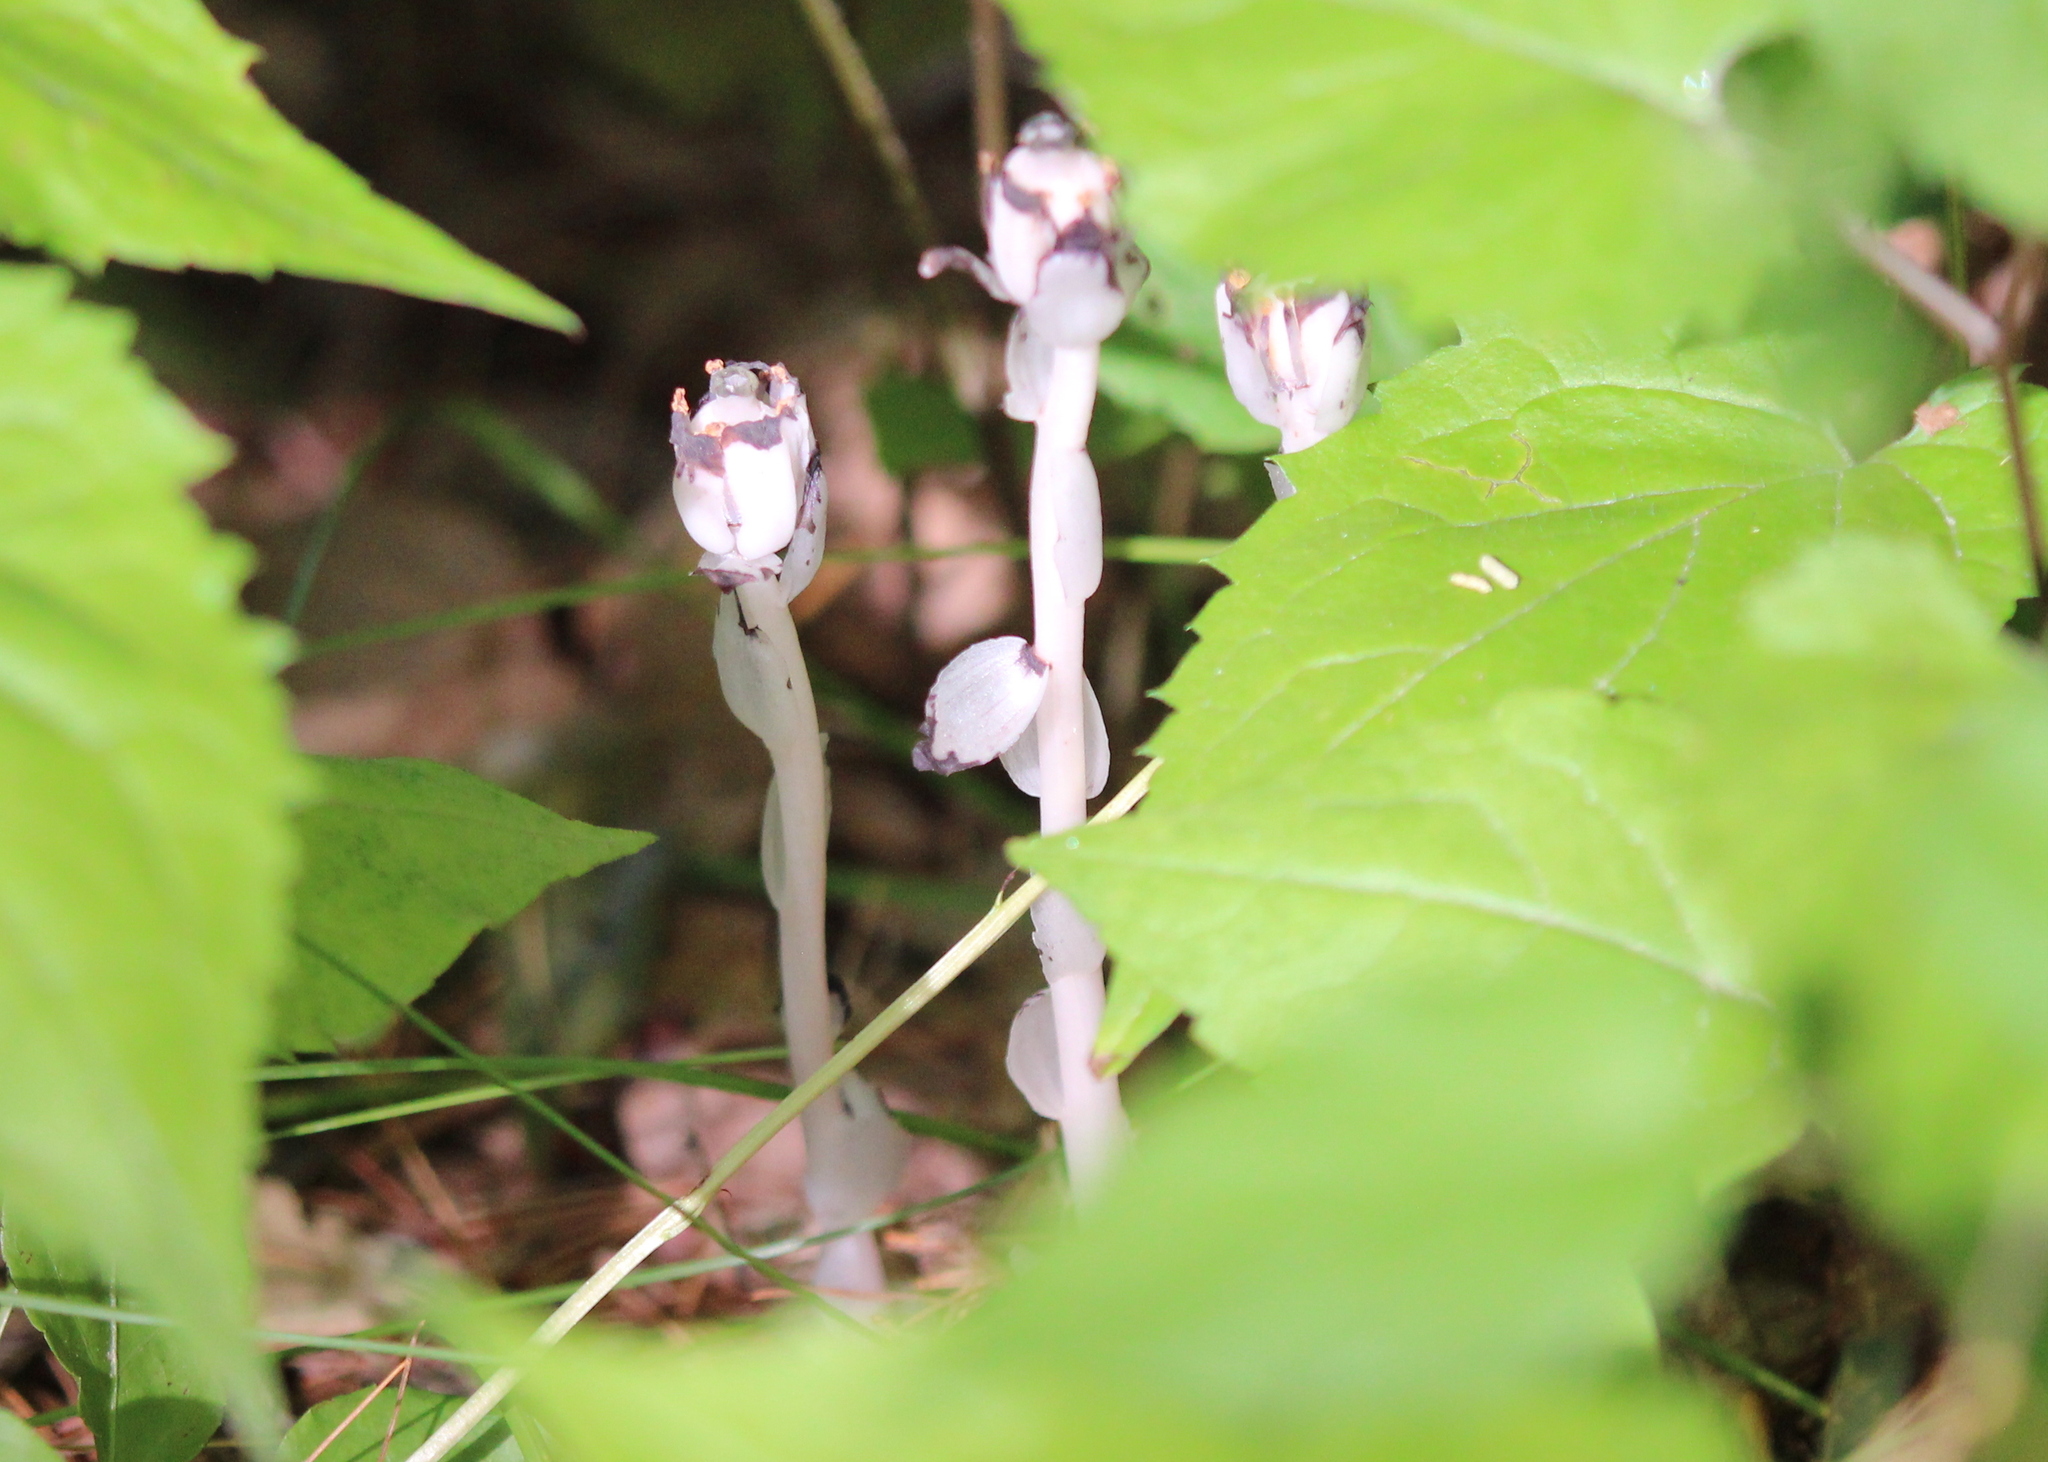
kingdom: Plantae
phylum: Tracheophyta
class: Magnoliopsida
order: Ericales
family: Ericaceae
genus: Monotropa
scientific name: Monotropa uniflora
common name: Convulsion root
